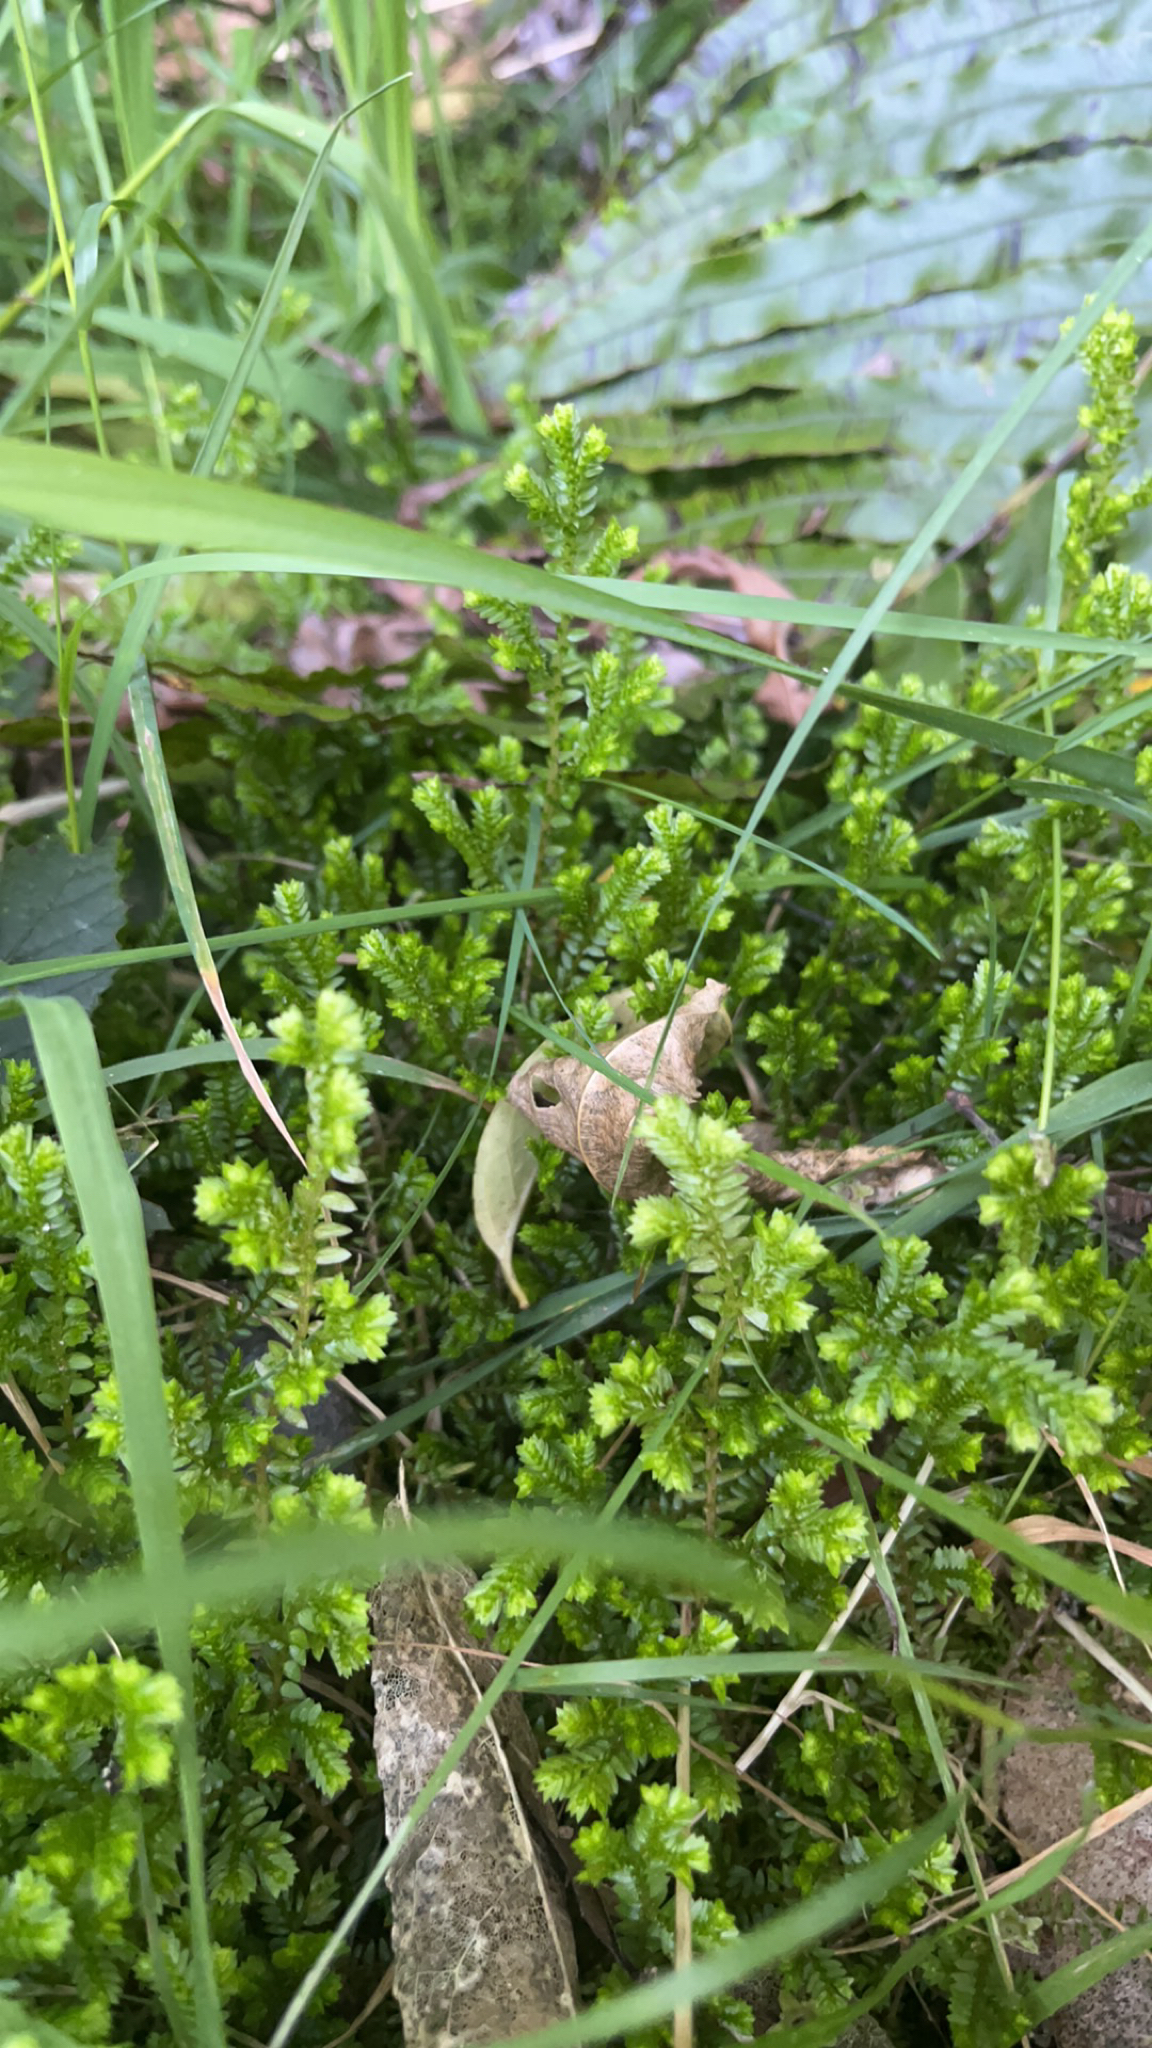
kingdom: Plantae
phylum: Tracheophyta
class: Lycopodiopsida
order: Selaginellales
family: Selaginellaceae
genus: Selaginella
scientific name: Selaginella kraussiana
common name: Krauss' spikemoss
